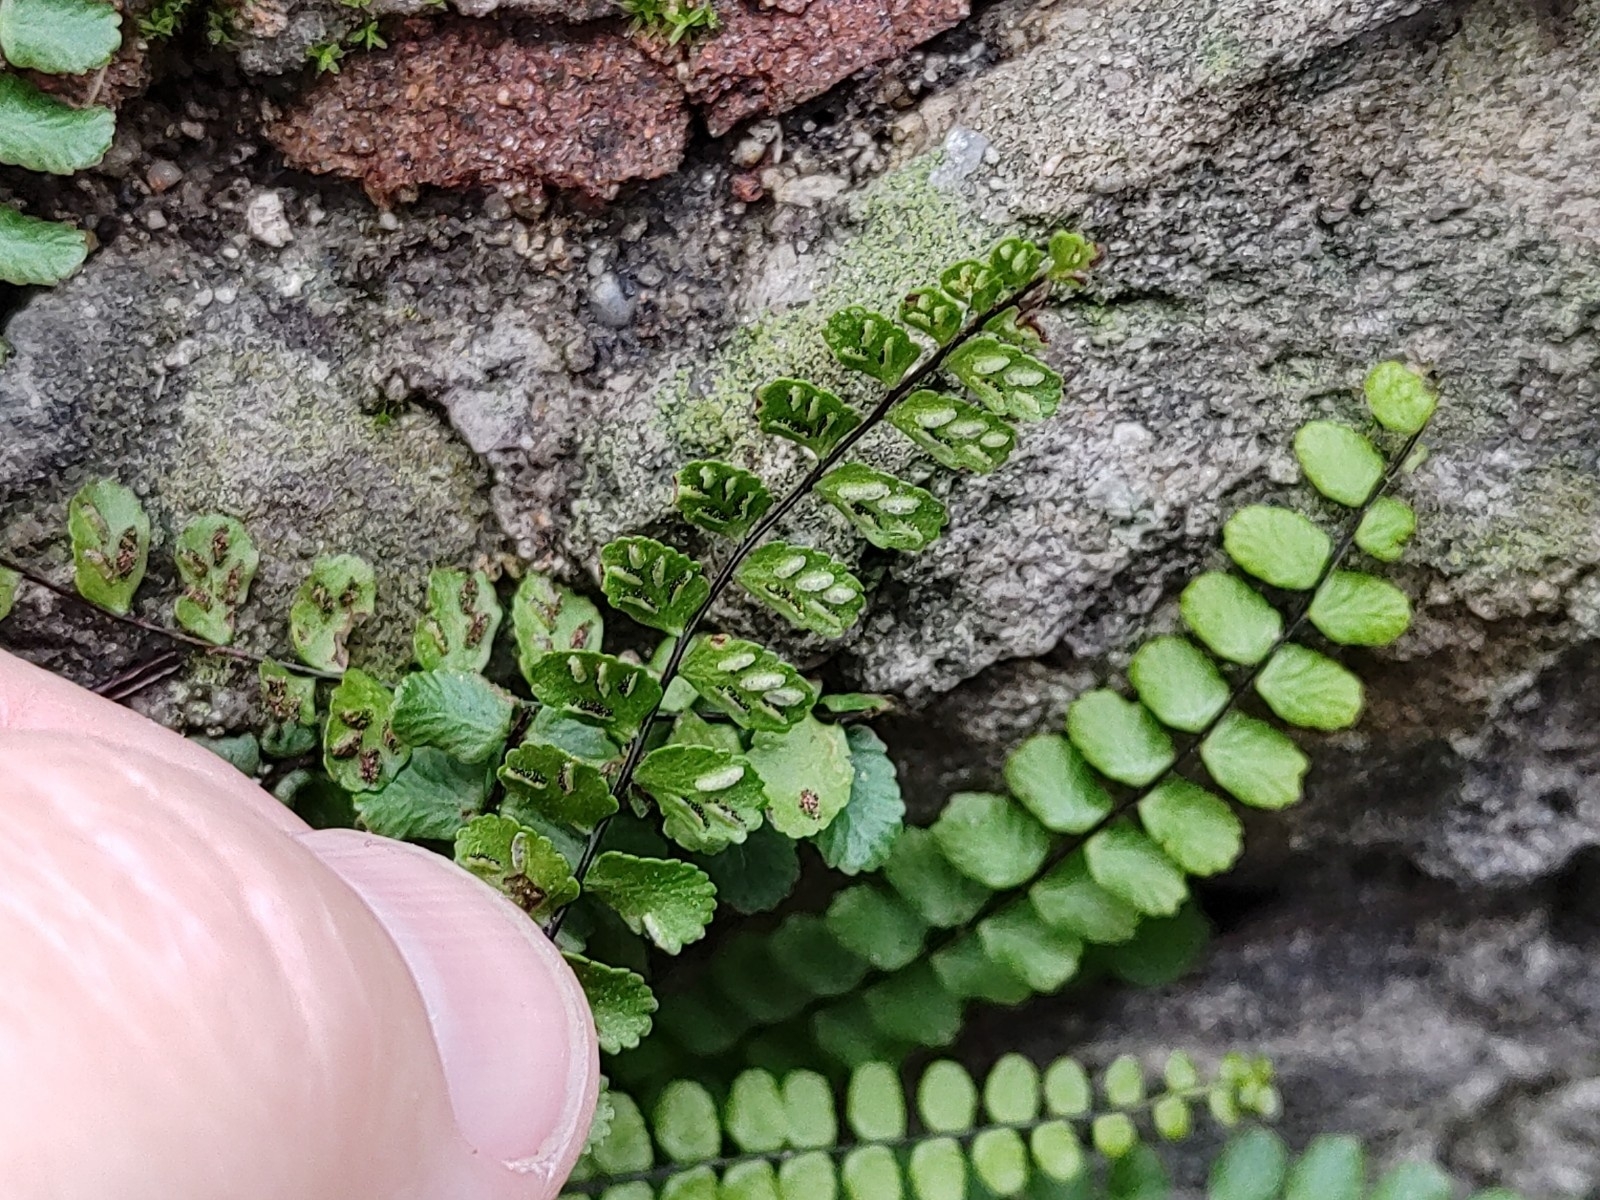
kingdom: Plantae
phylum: Tracheophyta
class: Polypodiopsida
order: Polypodiales
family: Aspleniaceae
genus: Asplenium
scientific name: Asplenium trichomanes
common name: Maidenhair spleenwort
